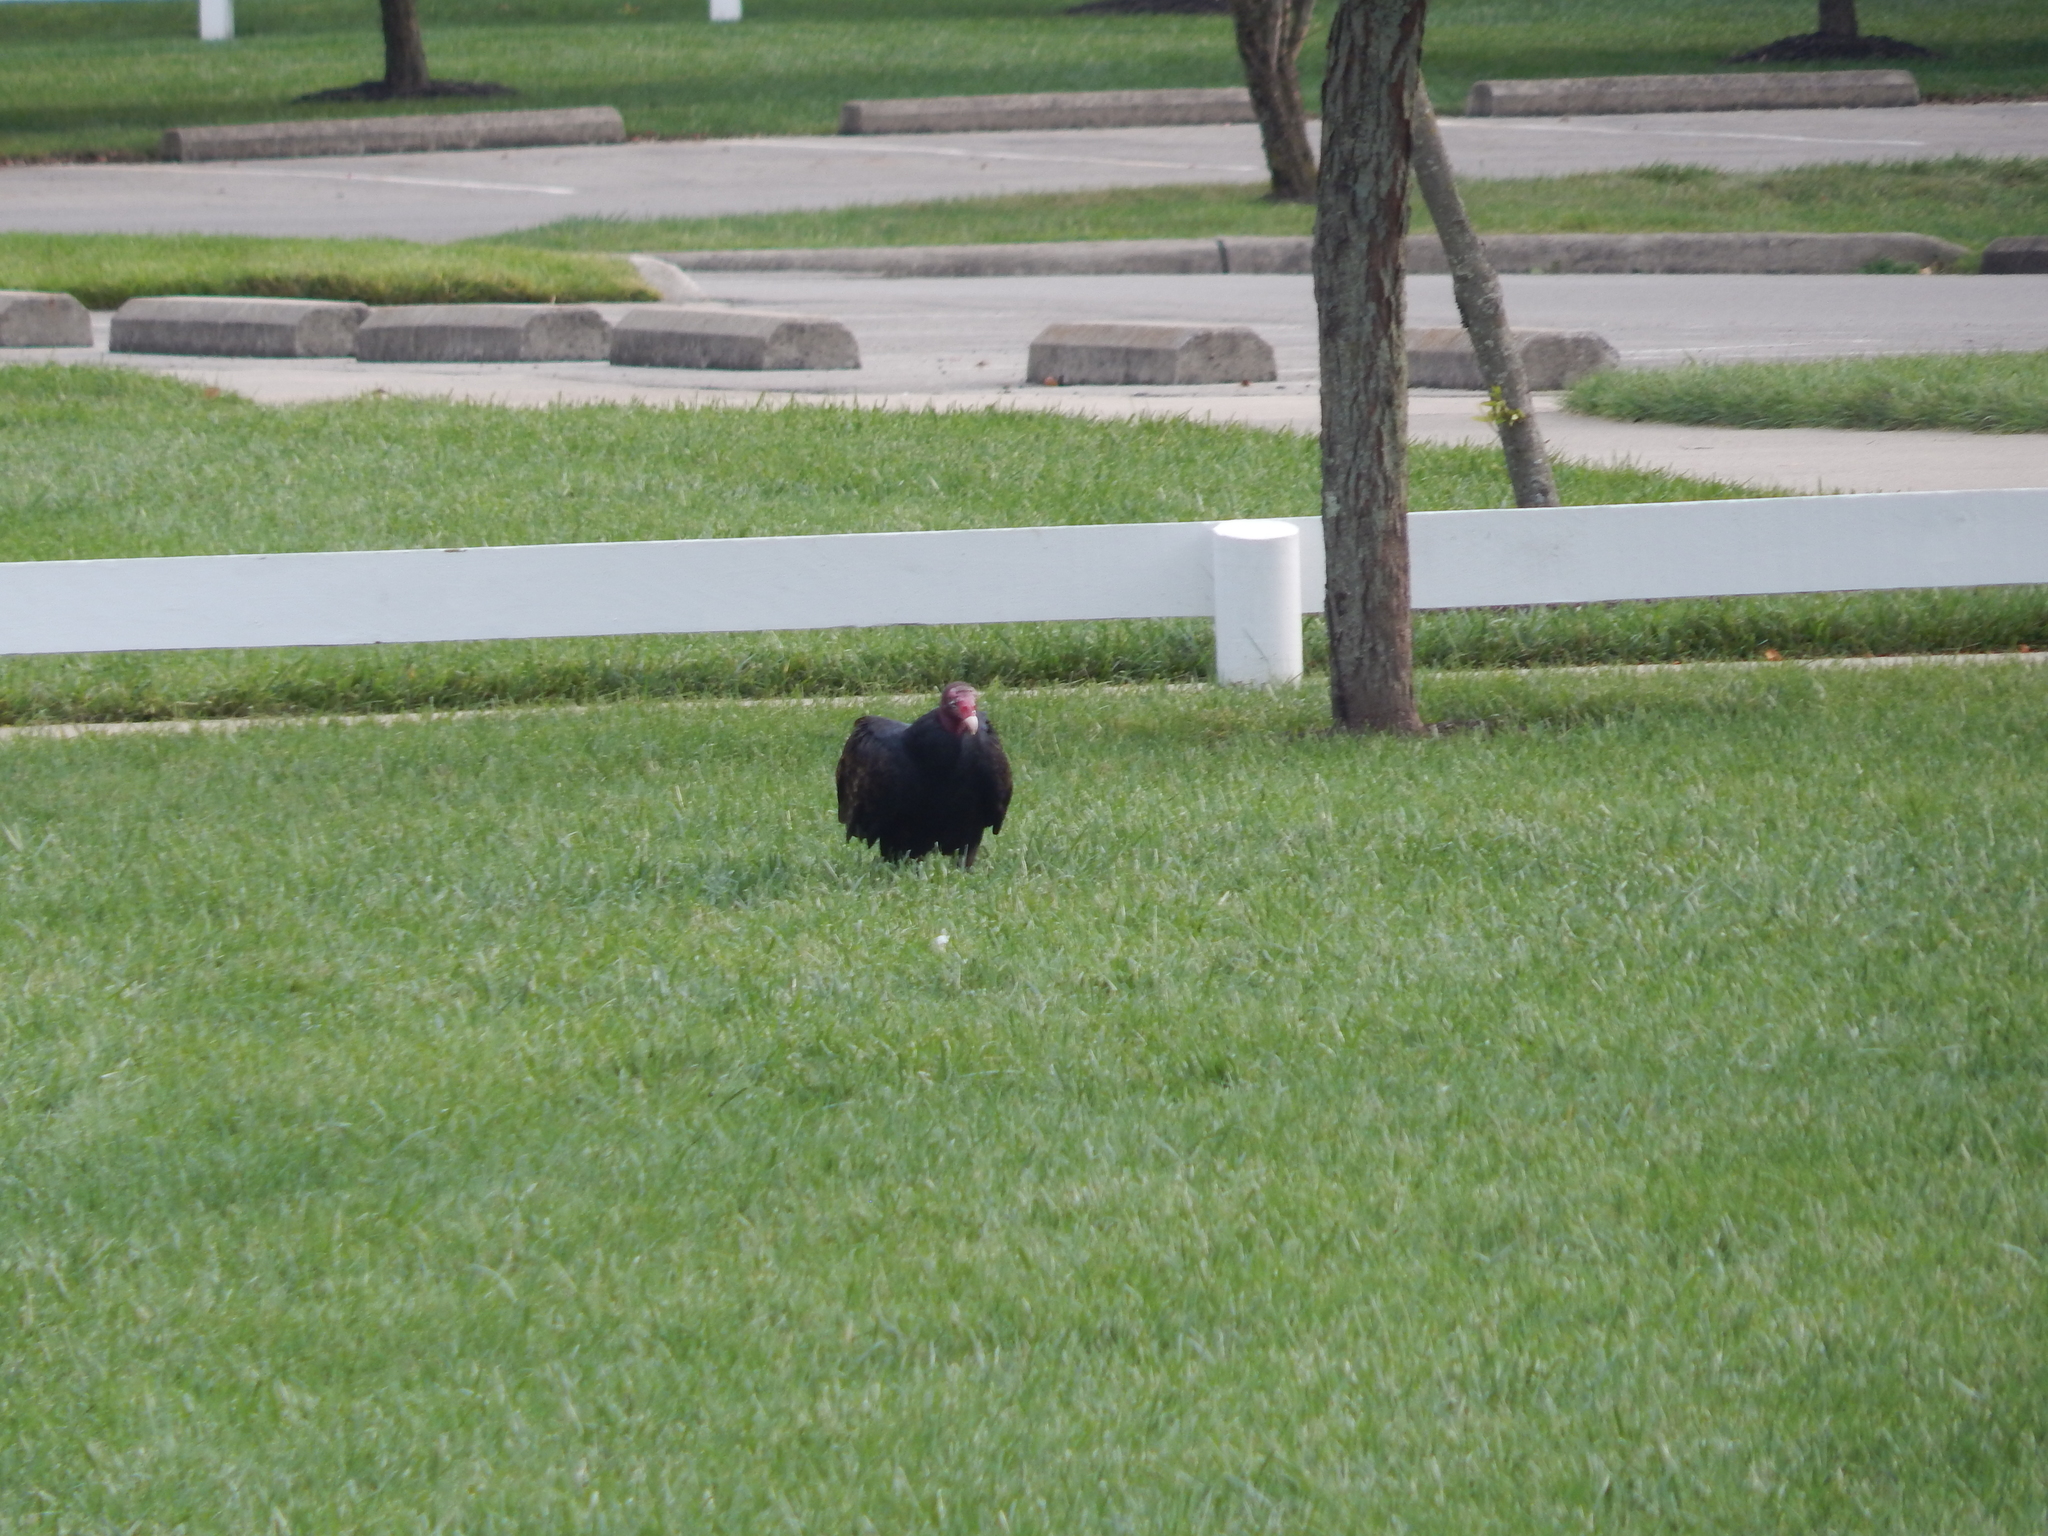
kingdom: Animalia
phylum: Chordata
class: Aves
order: Accipitriformes
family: Cathartidae
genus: Cathartes
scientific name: Cathartes aura
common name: Turkey vulture
